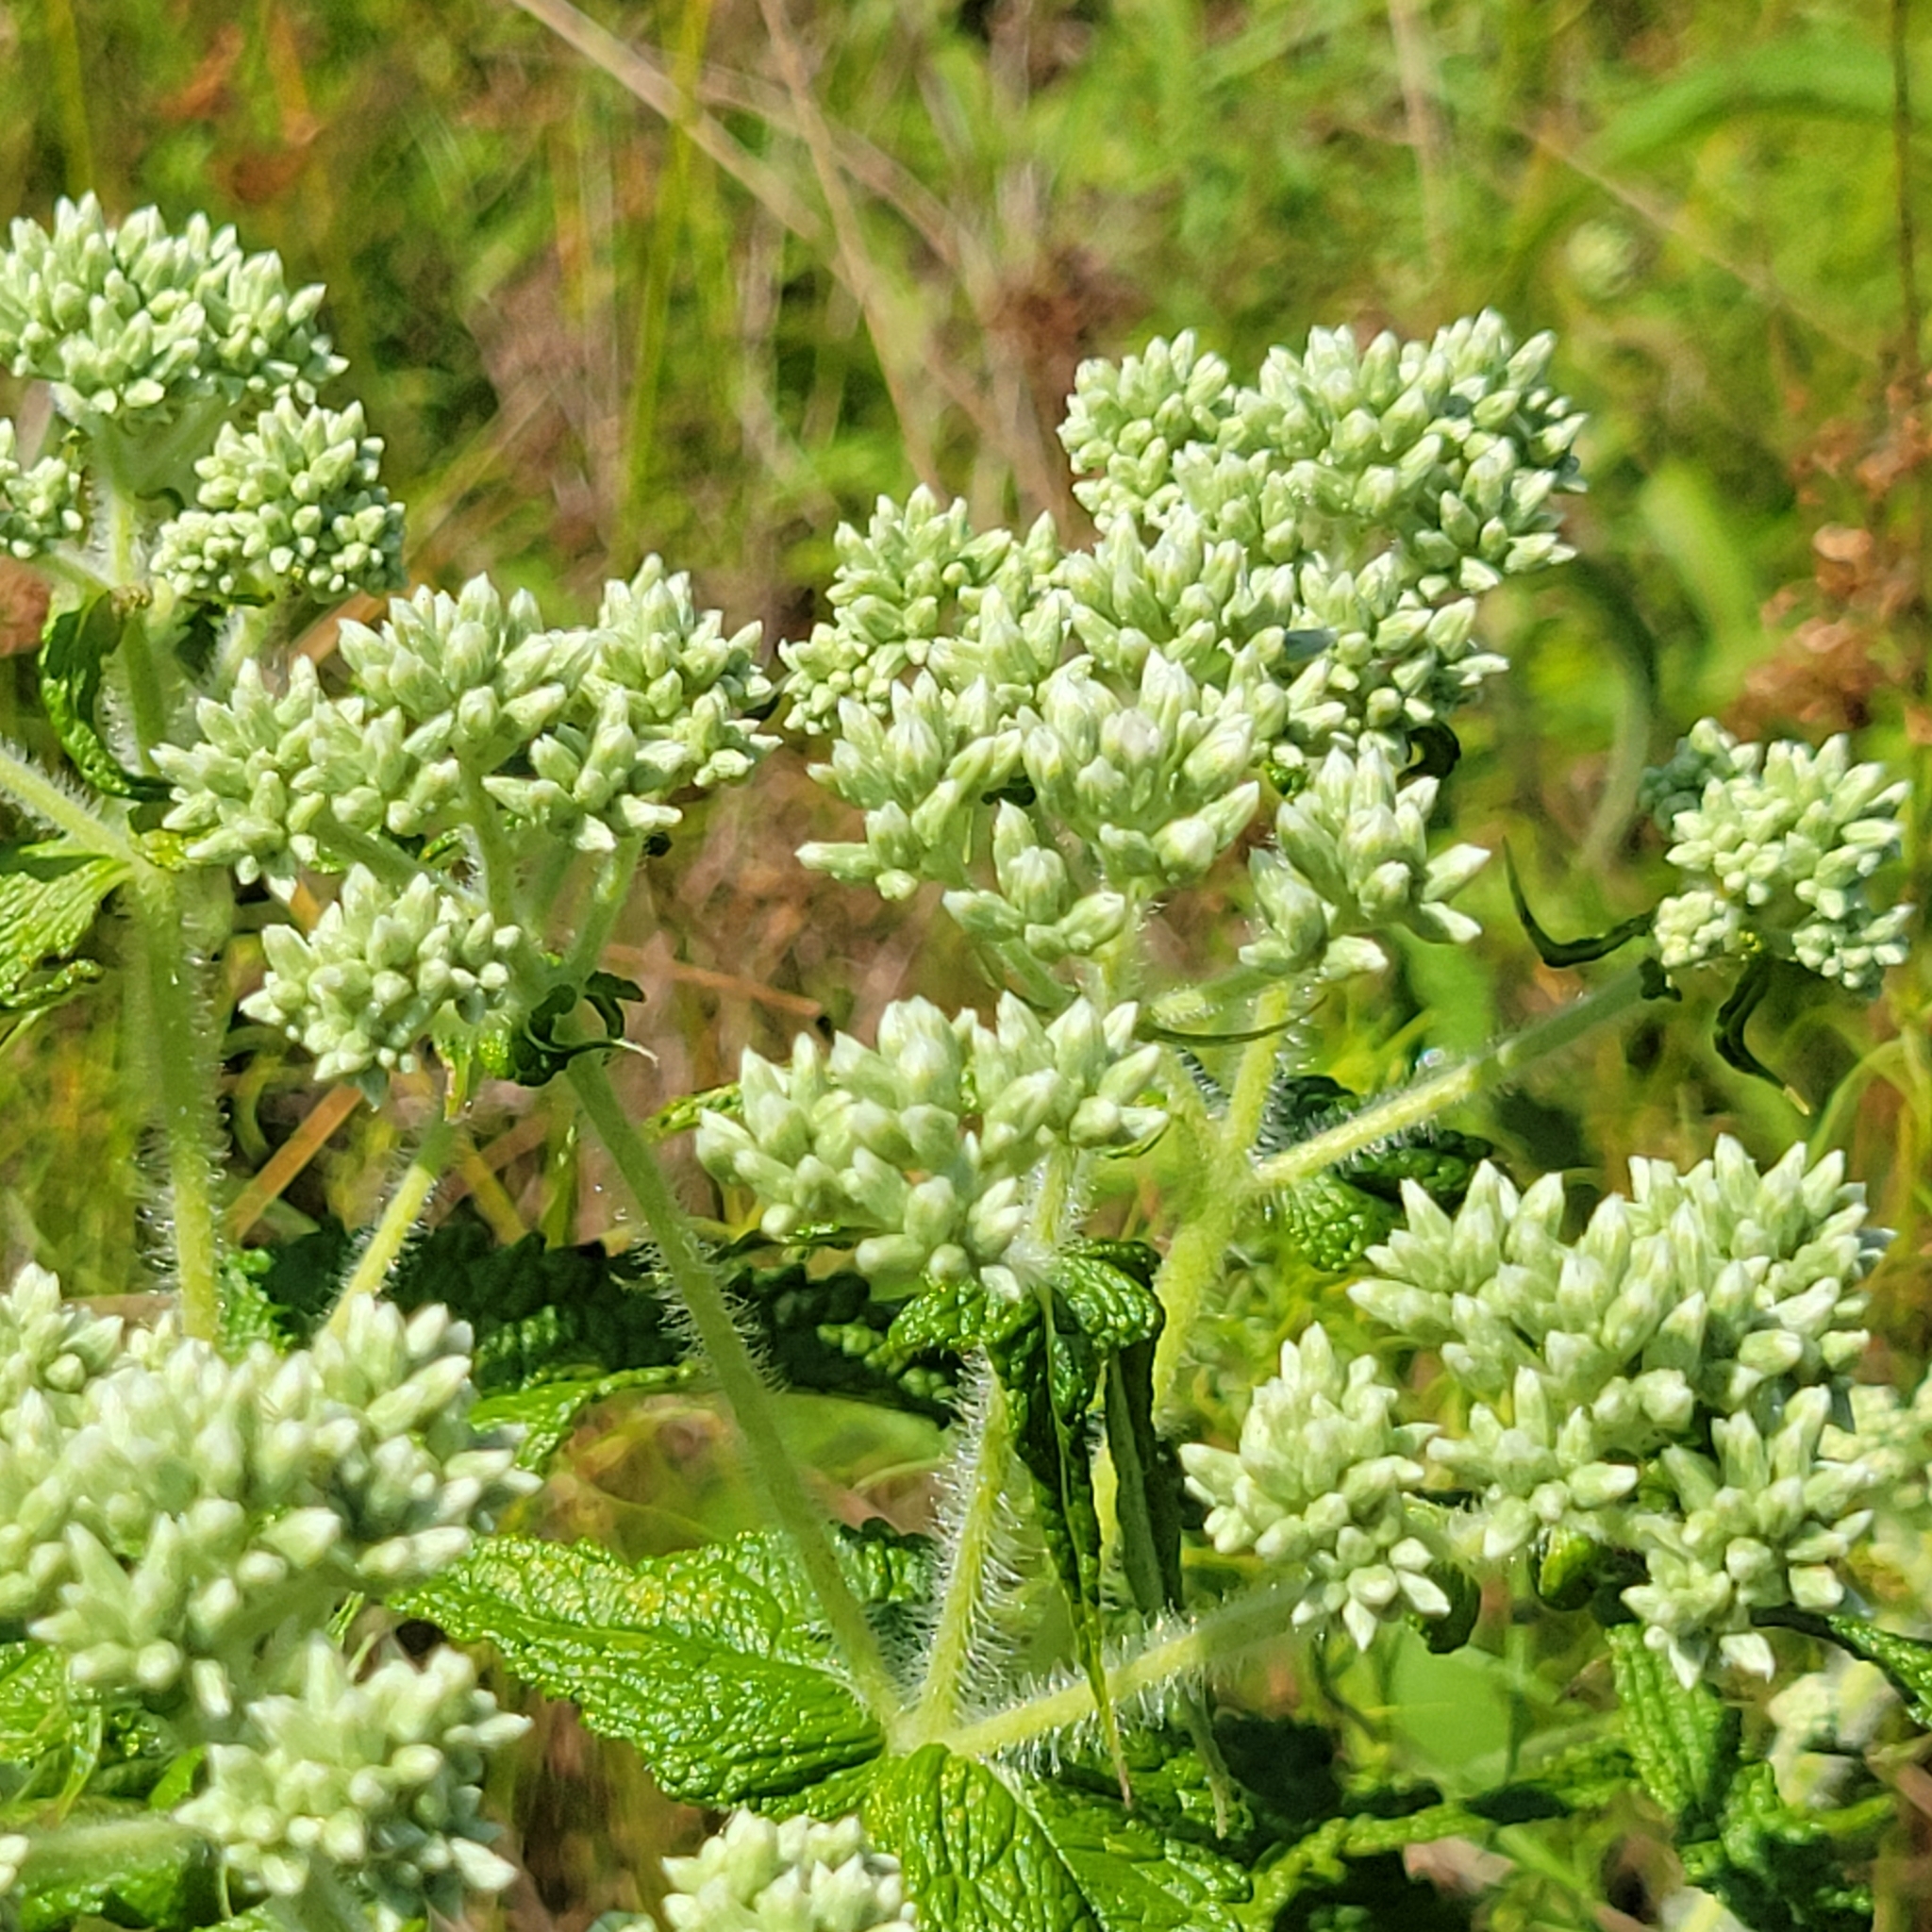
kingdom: Plantae
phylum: Tracheophyta
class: Magnoliopsida
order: Asterales
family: Asteraceae
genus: Eupatorium
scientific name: Eupatorium perfoliatum
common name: Boneset
